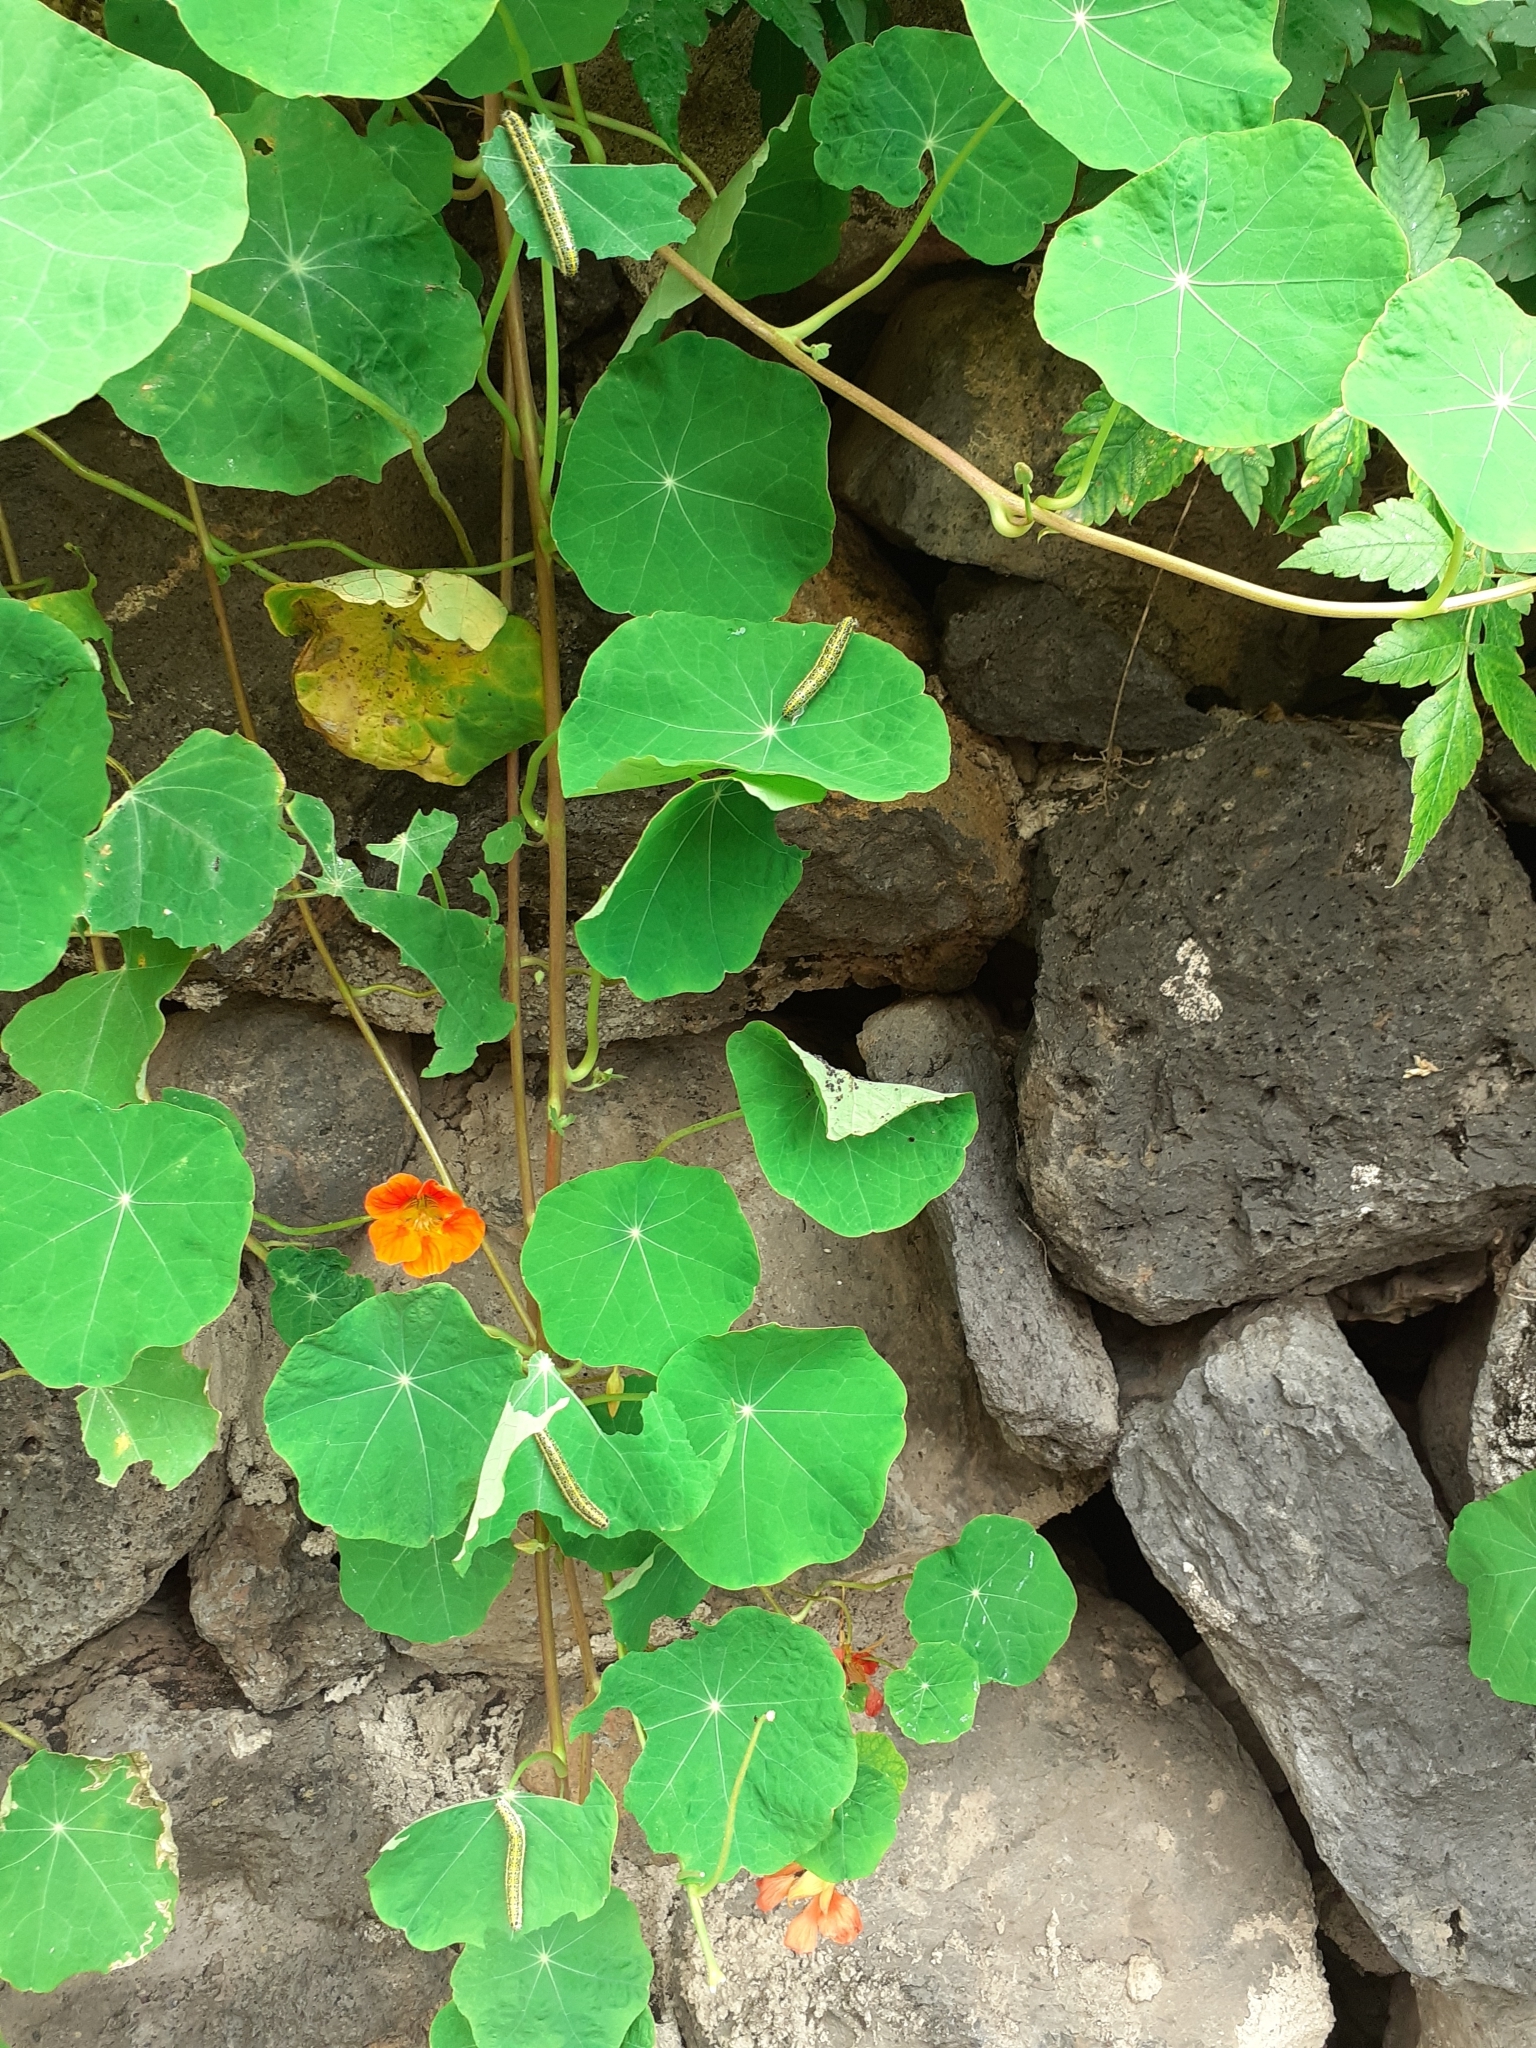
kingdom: Animalia
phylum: Arthropoda
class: Insecta
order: Lepidoptera
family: Pieridae
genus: Pieris
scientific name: Pieris cheiranthi
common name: Canary islands large white
